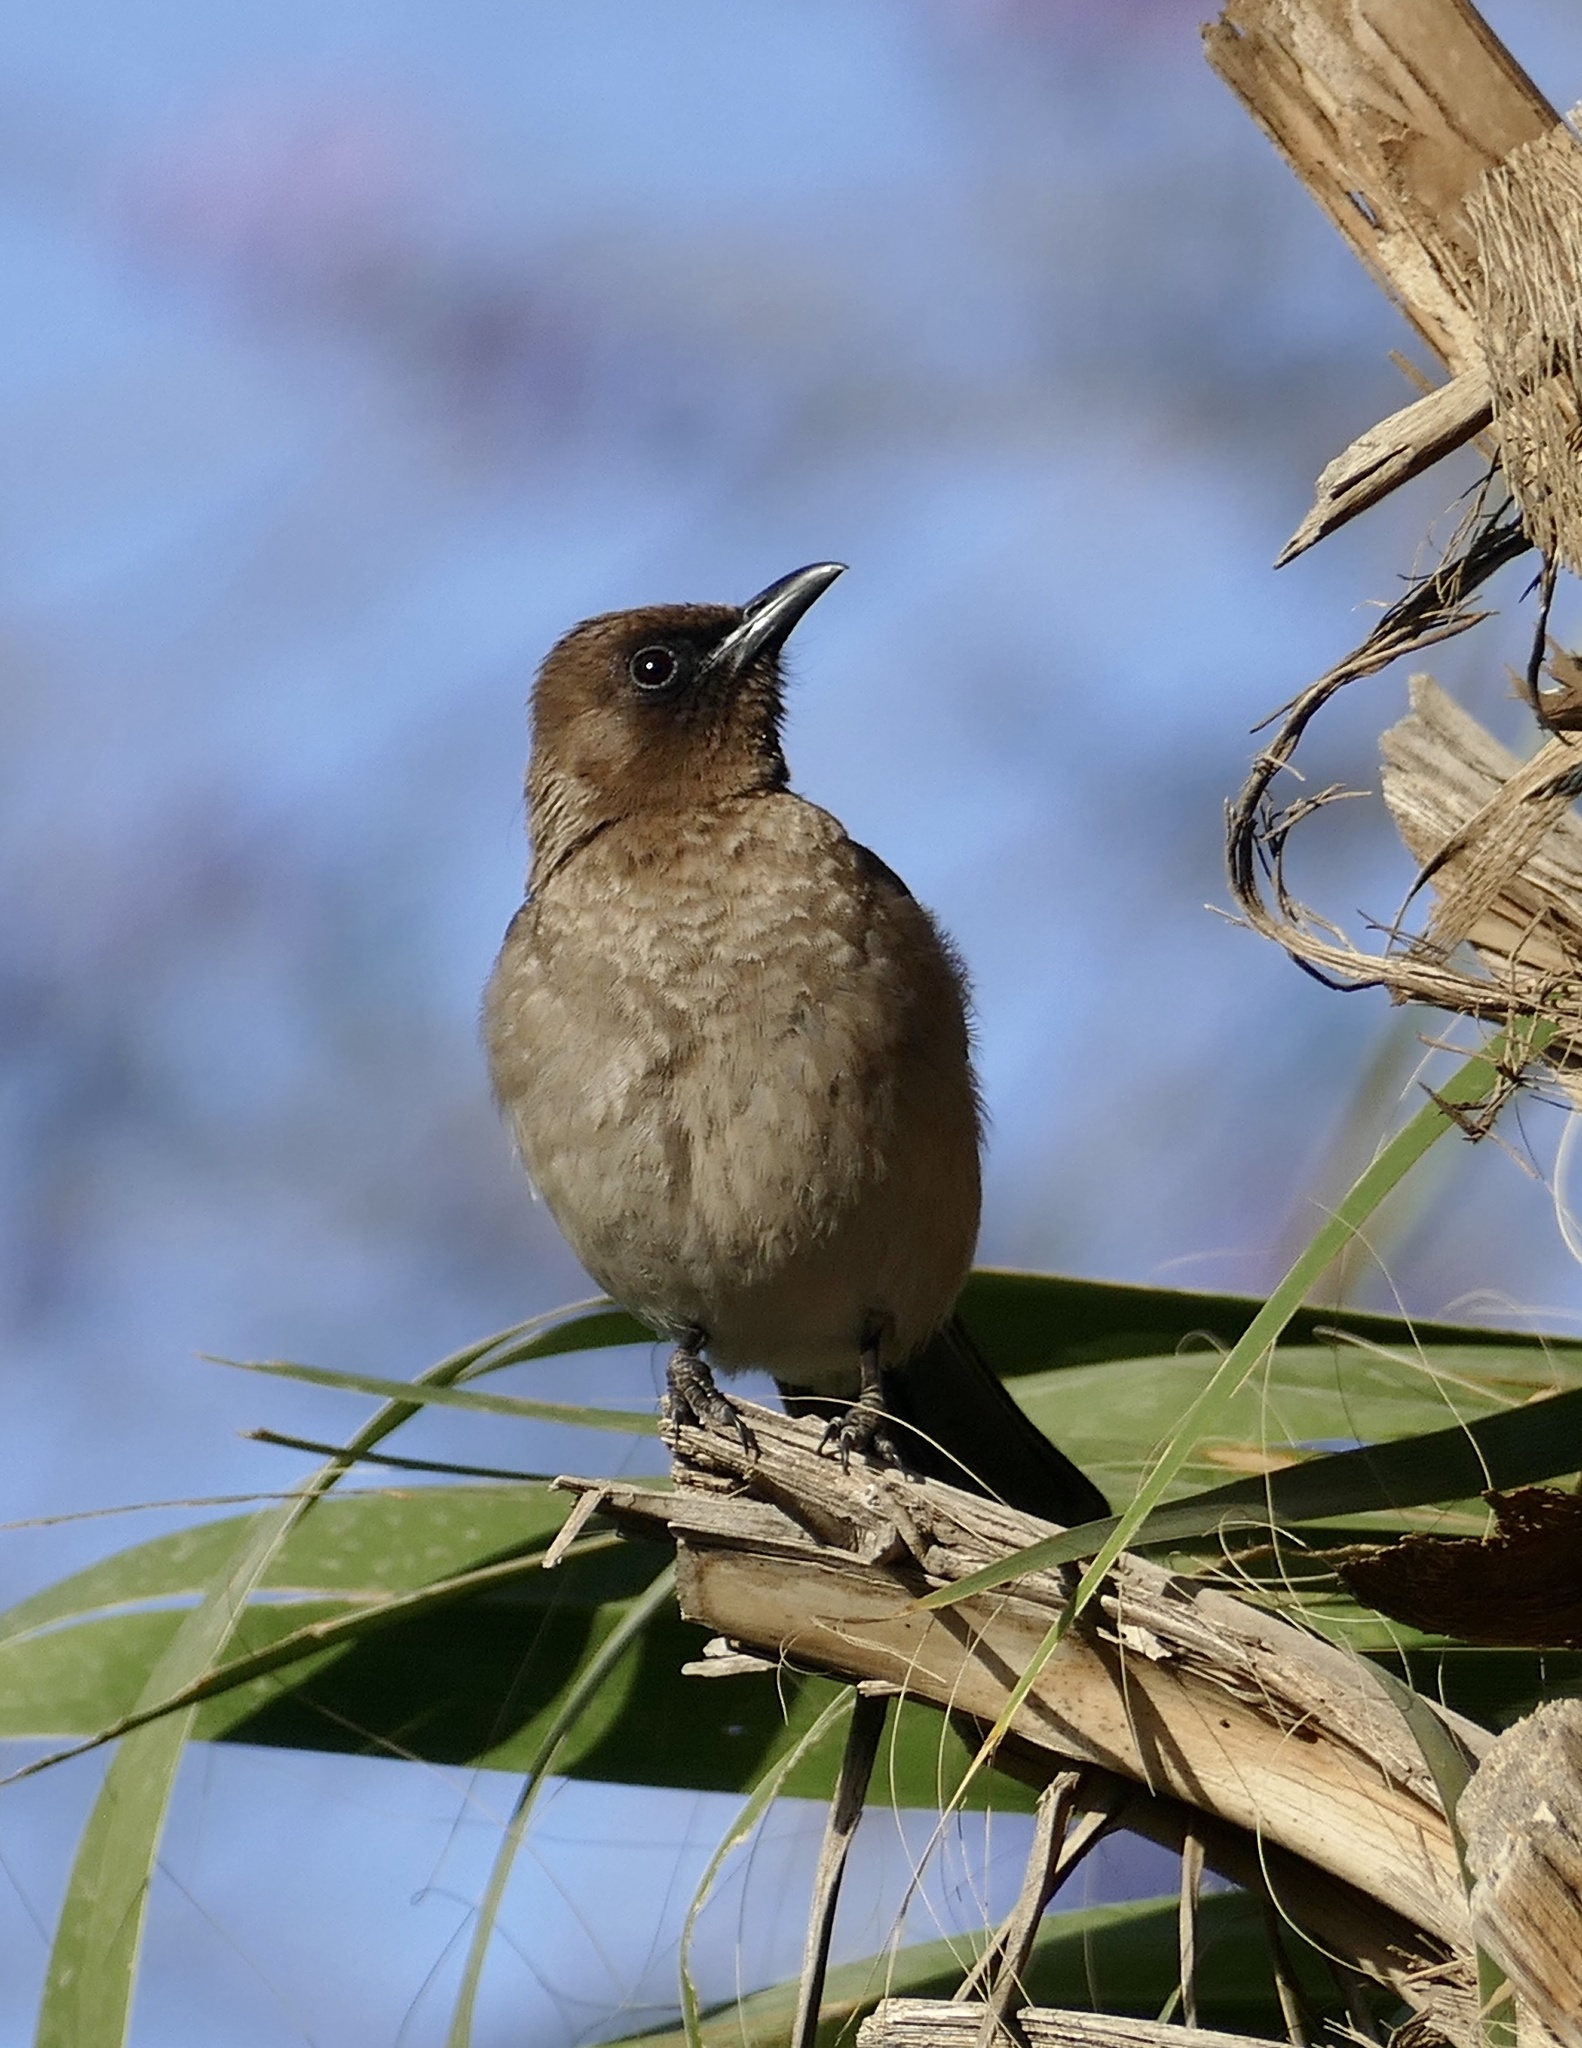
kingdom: Animalia
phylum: Chordata
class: Aves
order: Passeriformes
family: Pycnonotidae
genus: Pycnonotus
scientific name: Pycnonotus barbatus
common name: Common bulbul
